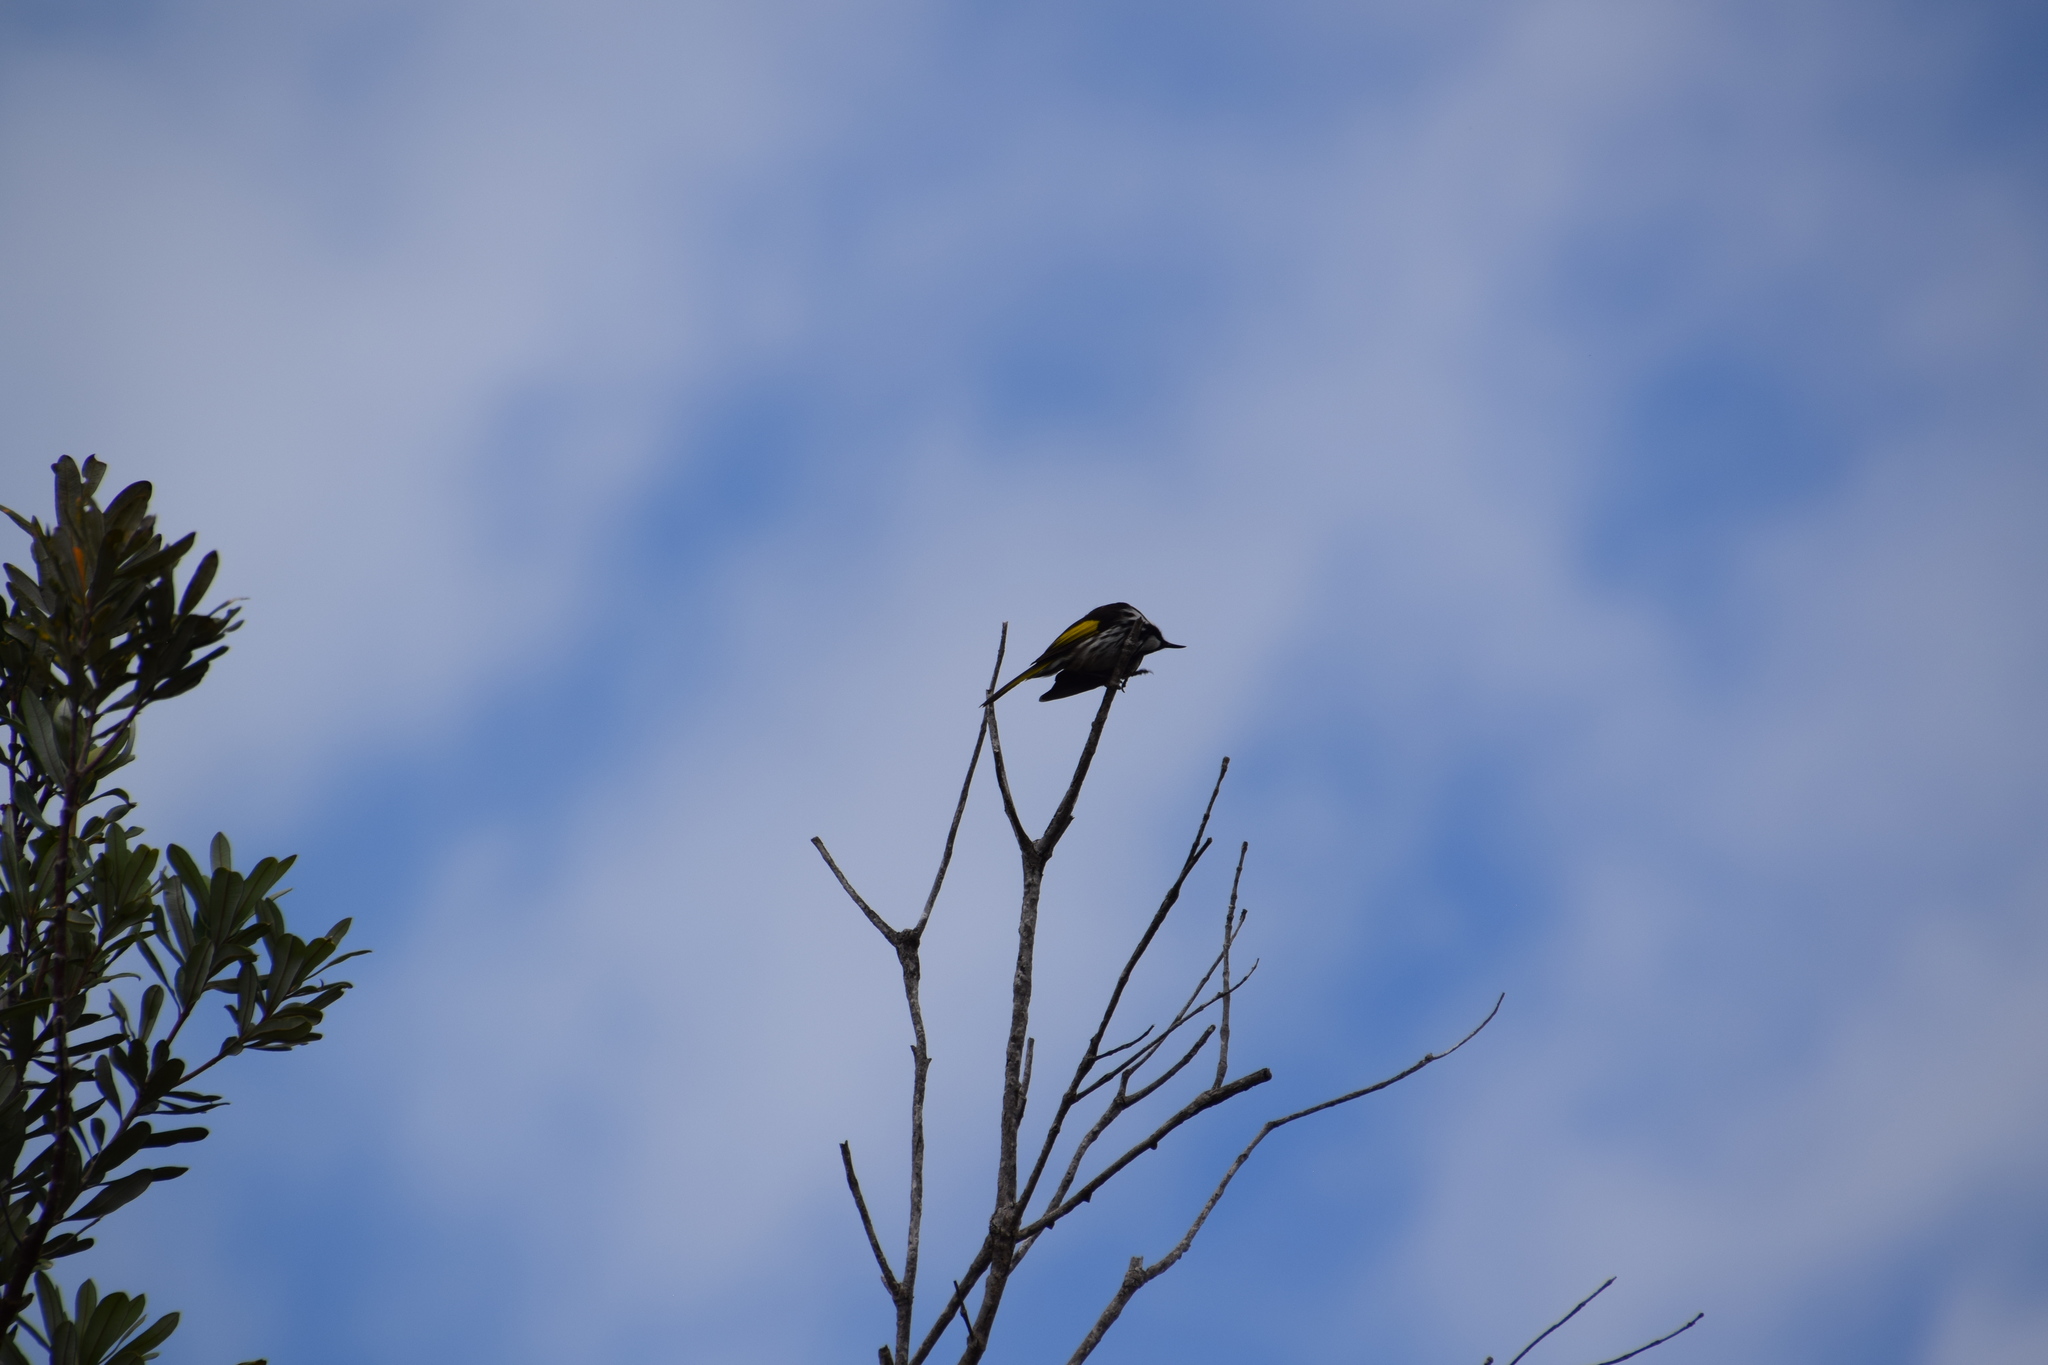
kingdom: Animalia
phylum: Chordata
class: Aves
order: Passeriformes
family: Meliphagidae
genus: Phylidonyris
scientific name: Phylidonyris niger
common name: White-cheeked honeyeater
